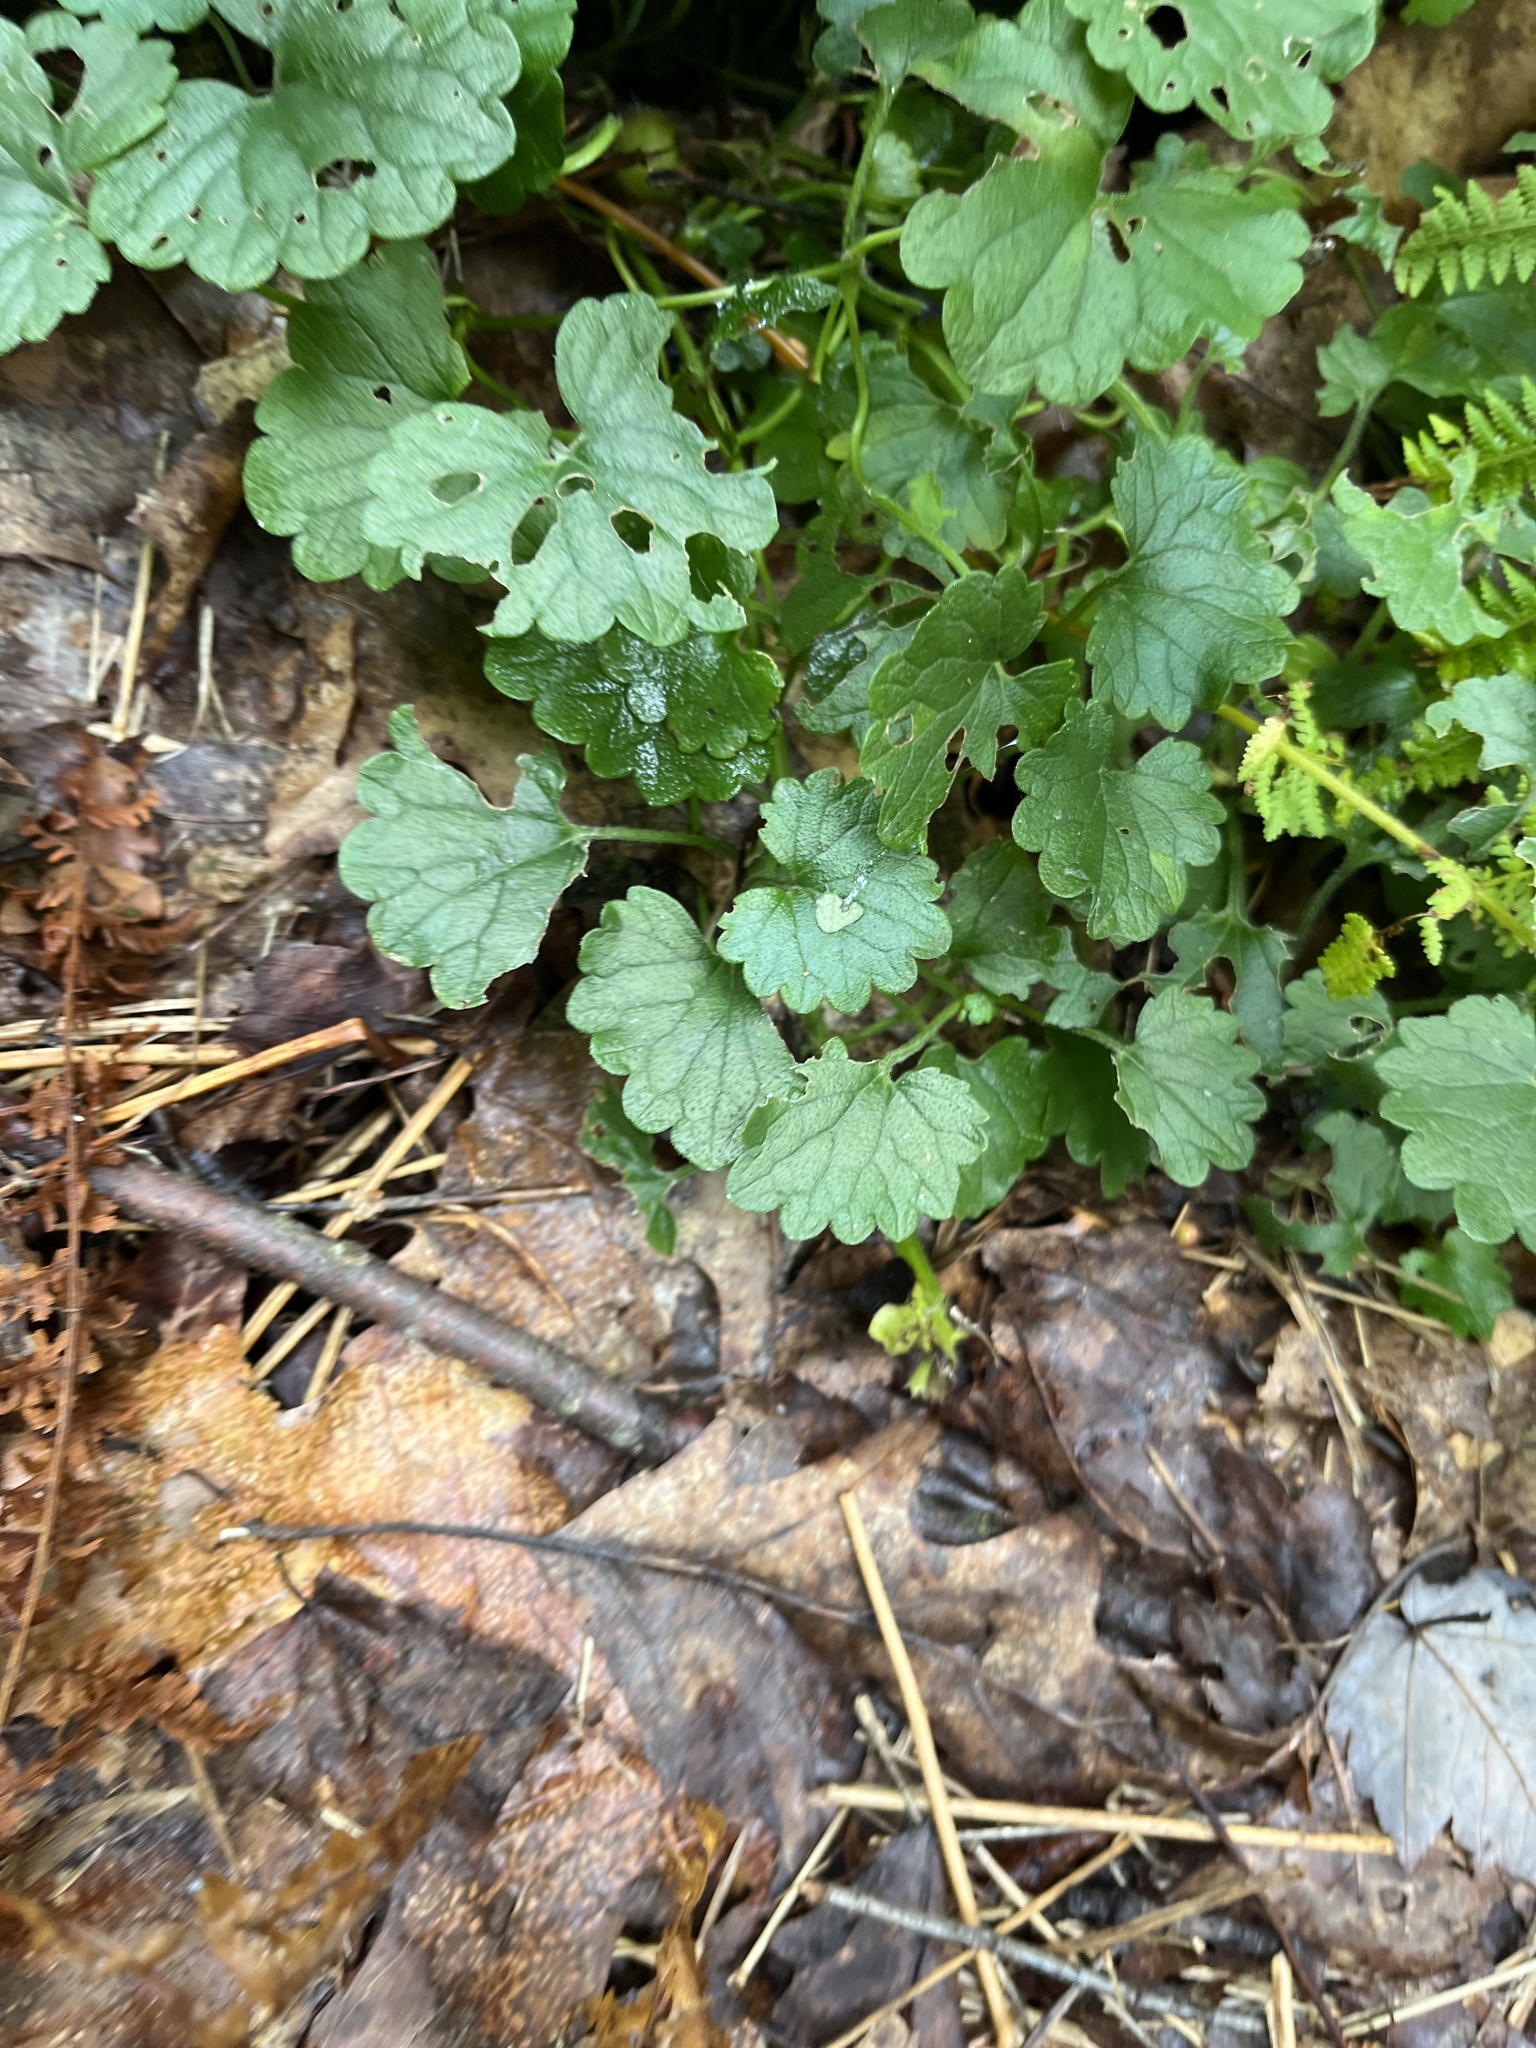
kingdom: Plantae
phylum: Tracheophyta
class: Magnoliopsida
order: Lamiales
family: Lamiaceae
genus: Glechoma
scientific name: Glechoma hederacea
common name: Ground ivy
